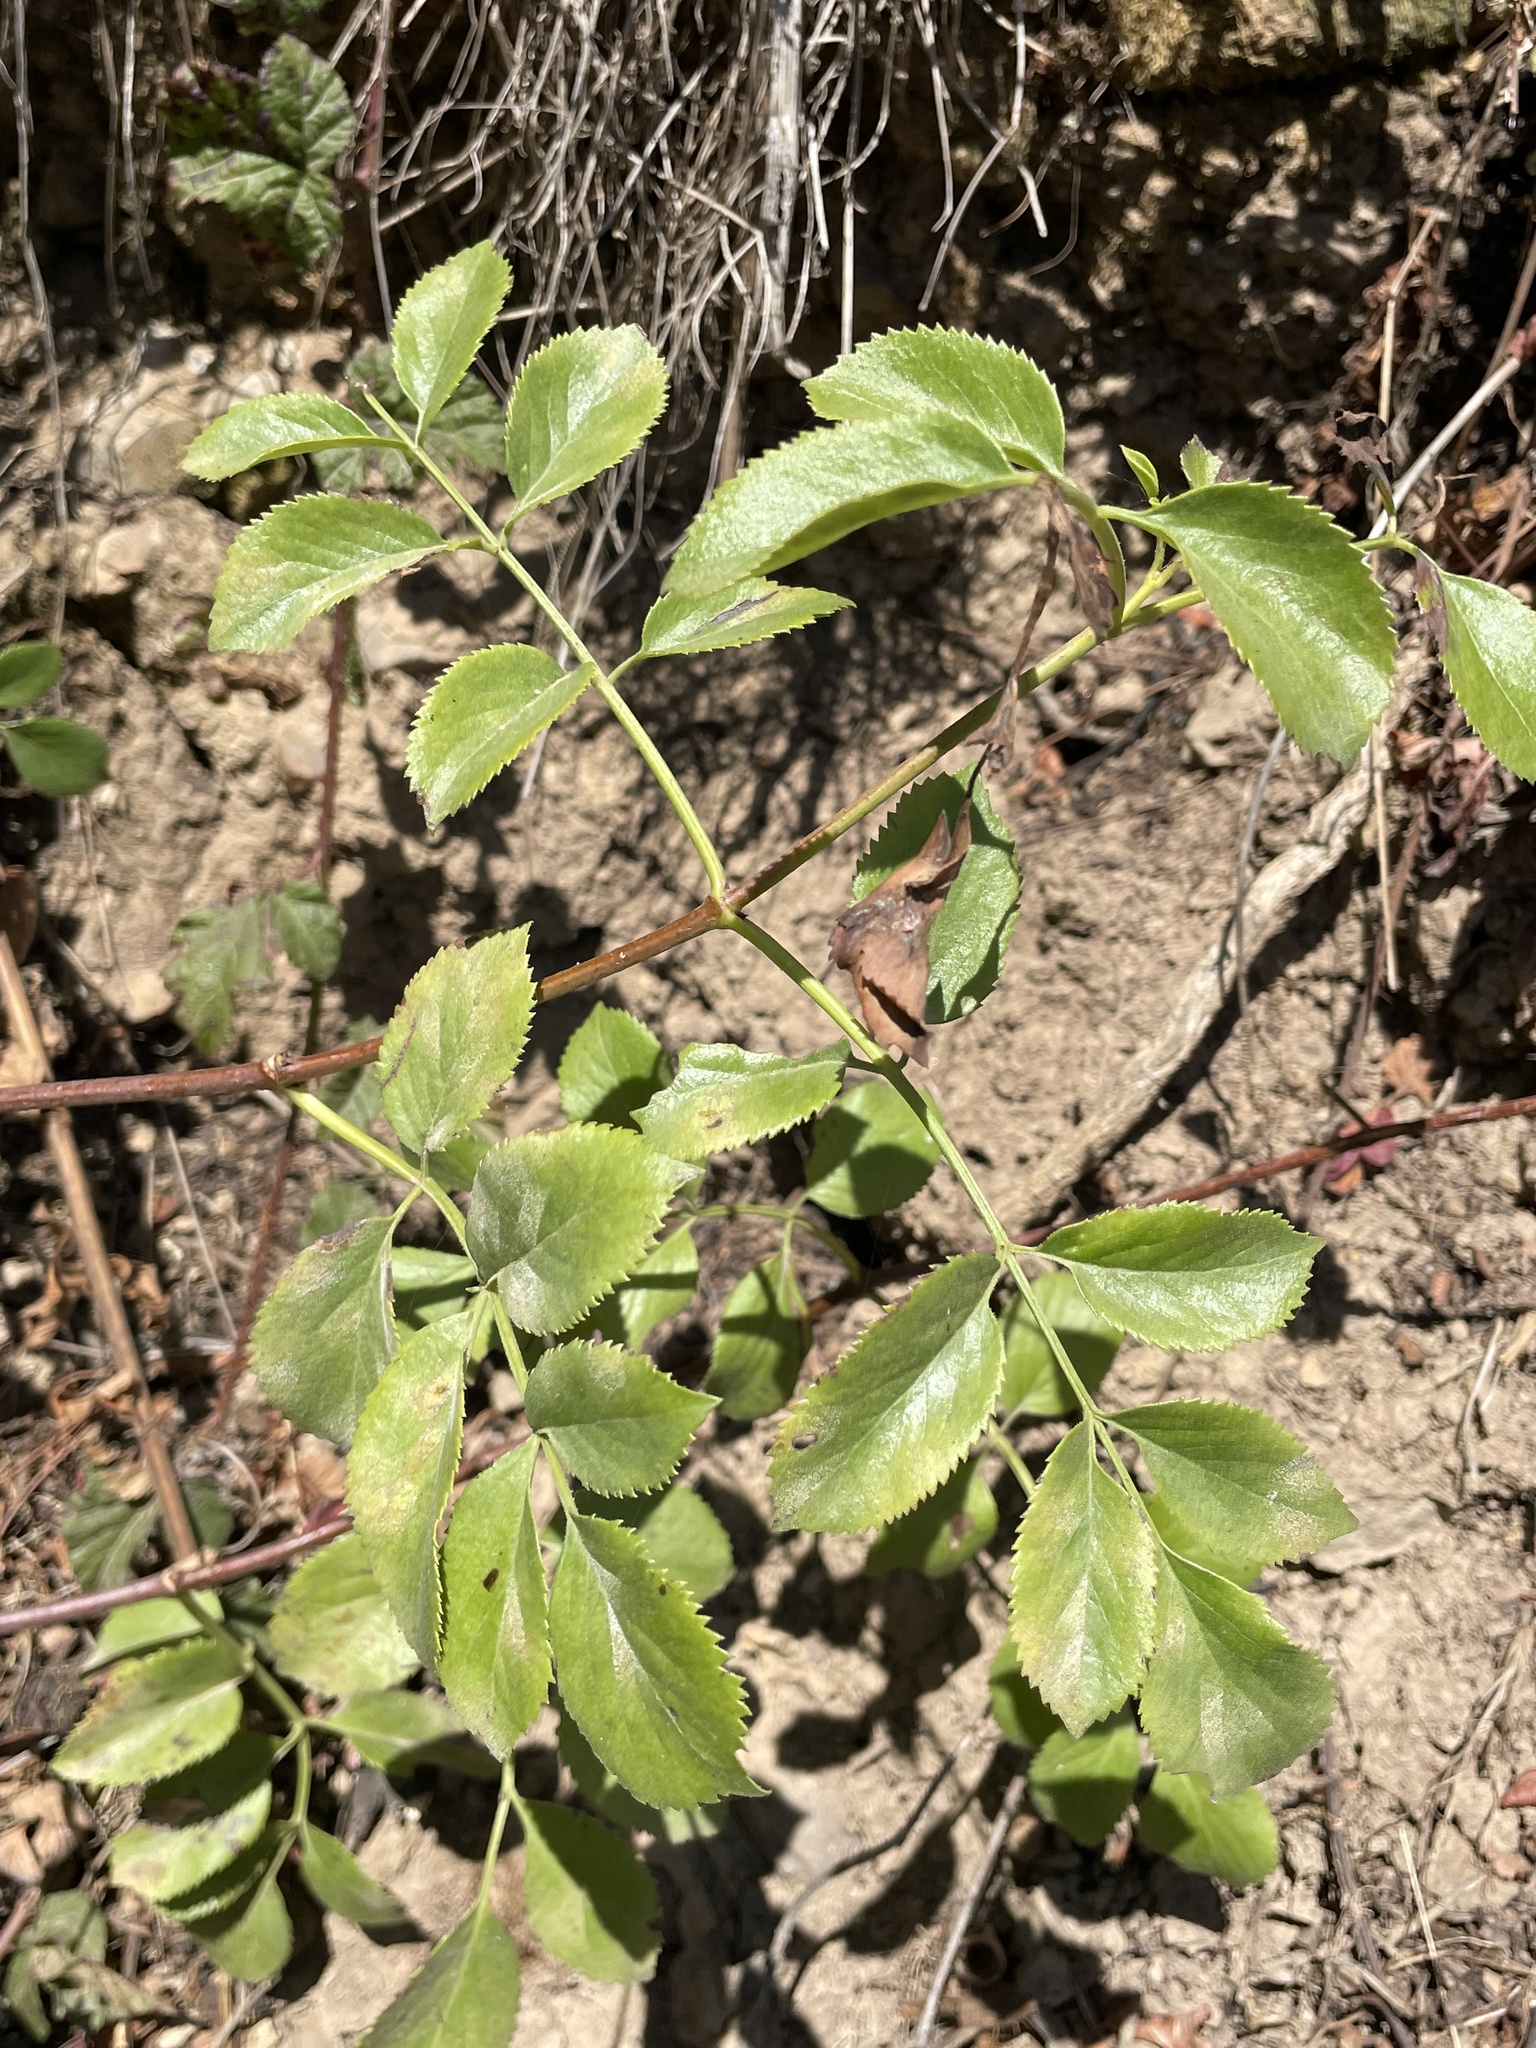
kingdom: Plantae
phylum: Tracheophyta
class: Magnoliopsida
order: Dipsacales
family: Viburnaceae
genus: Sambucus
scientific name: Sambucus cerulea
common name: Blue elder
